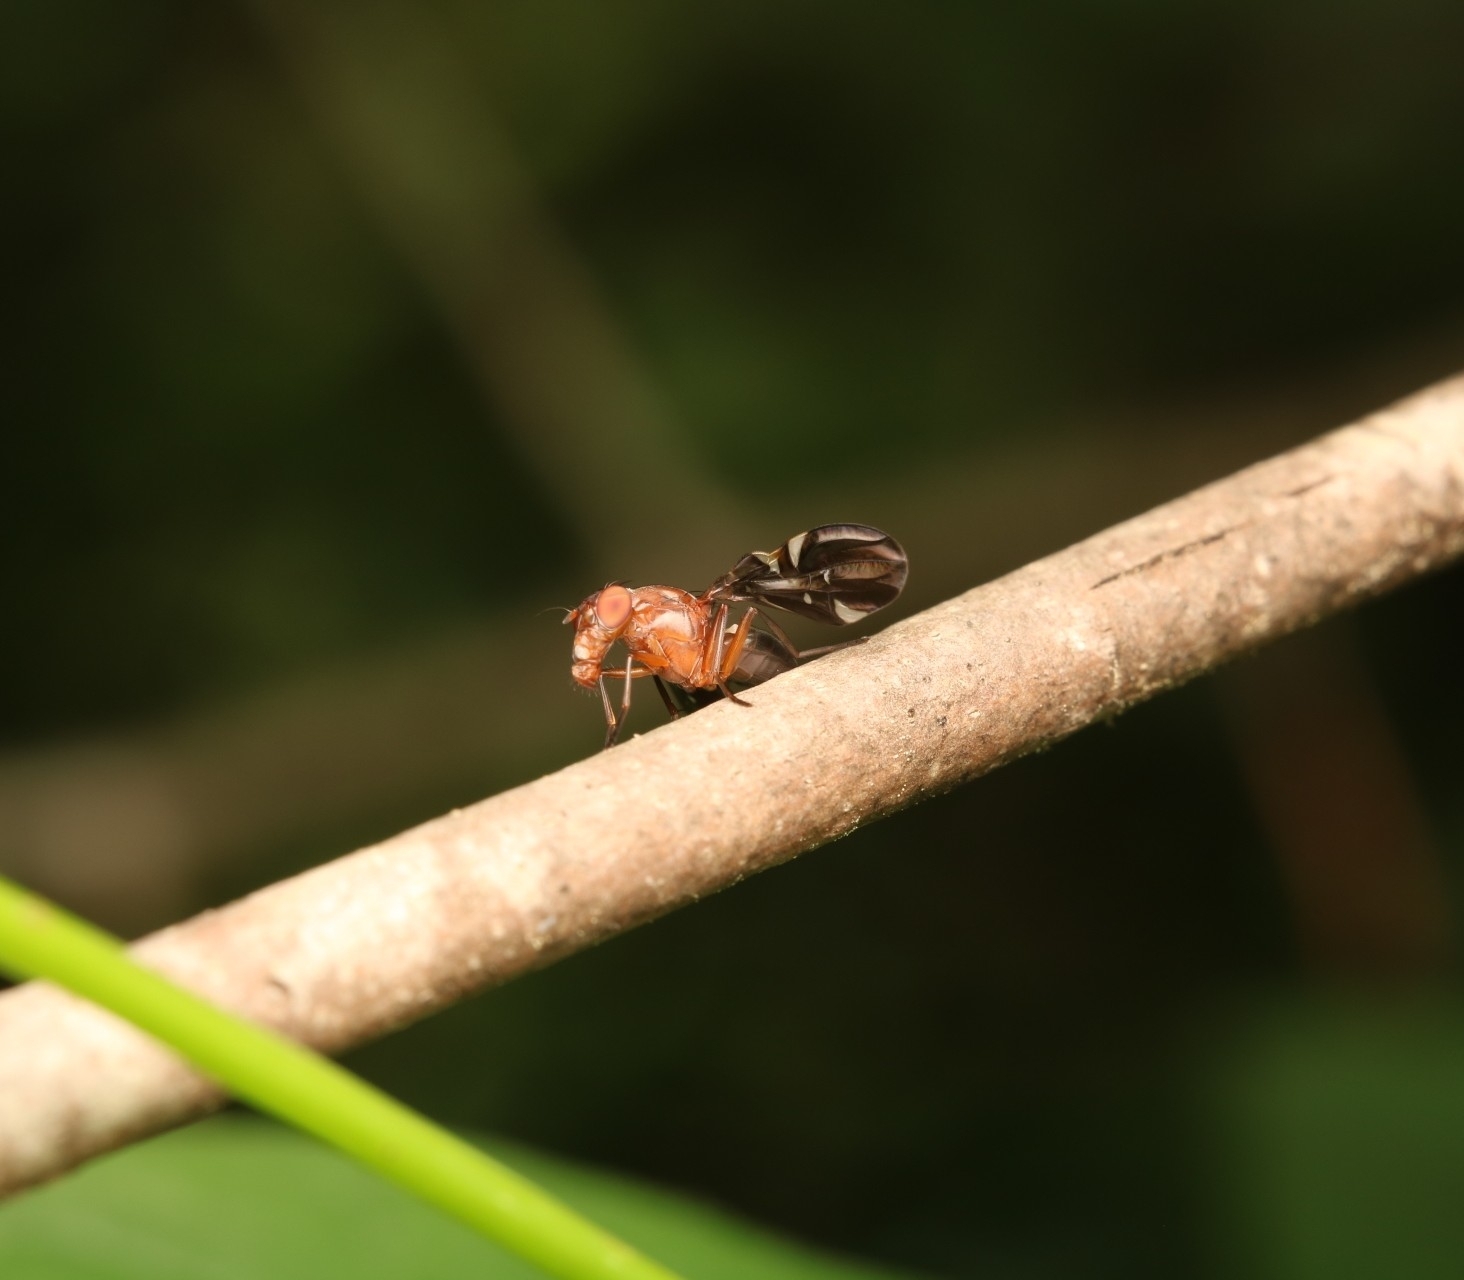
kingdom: Animalia
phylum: Arthropoda
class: Insecta
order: Diptera
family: Ulidiidae
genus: Delphinia
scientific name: Delphinia picta
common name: Common picture-winged fly
